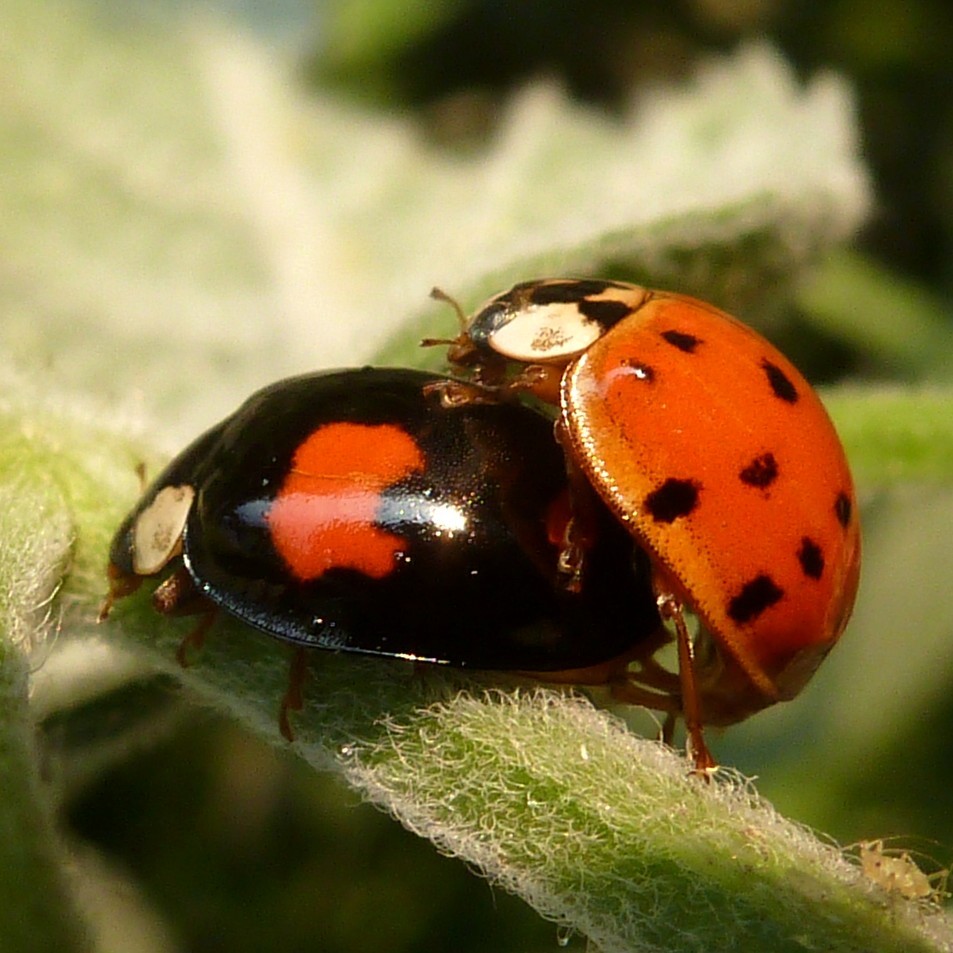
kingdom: Animalia
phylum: Arthropoda
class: Insecta
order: Coleoptera
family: Coccinellidae
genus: Harmonia
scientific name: Harmonia axyridis
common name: Harlequin ladybird
